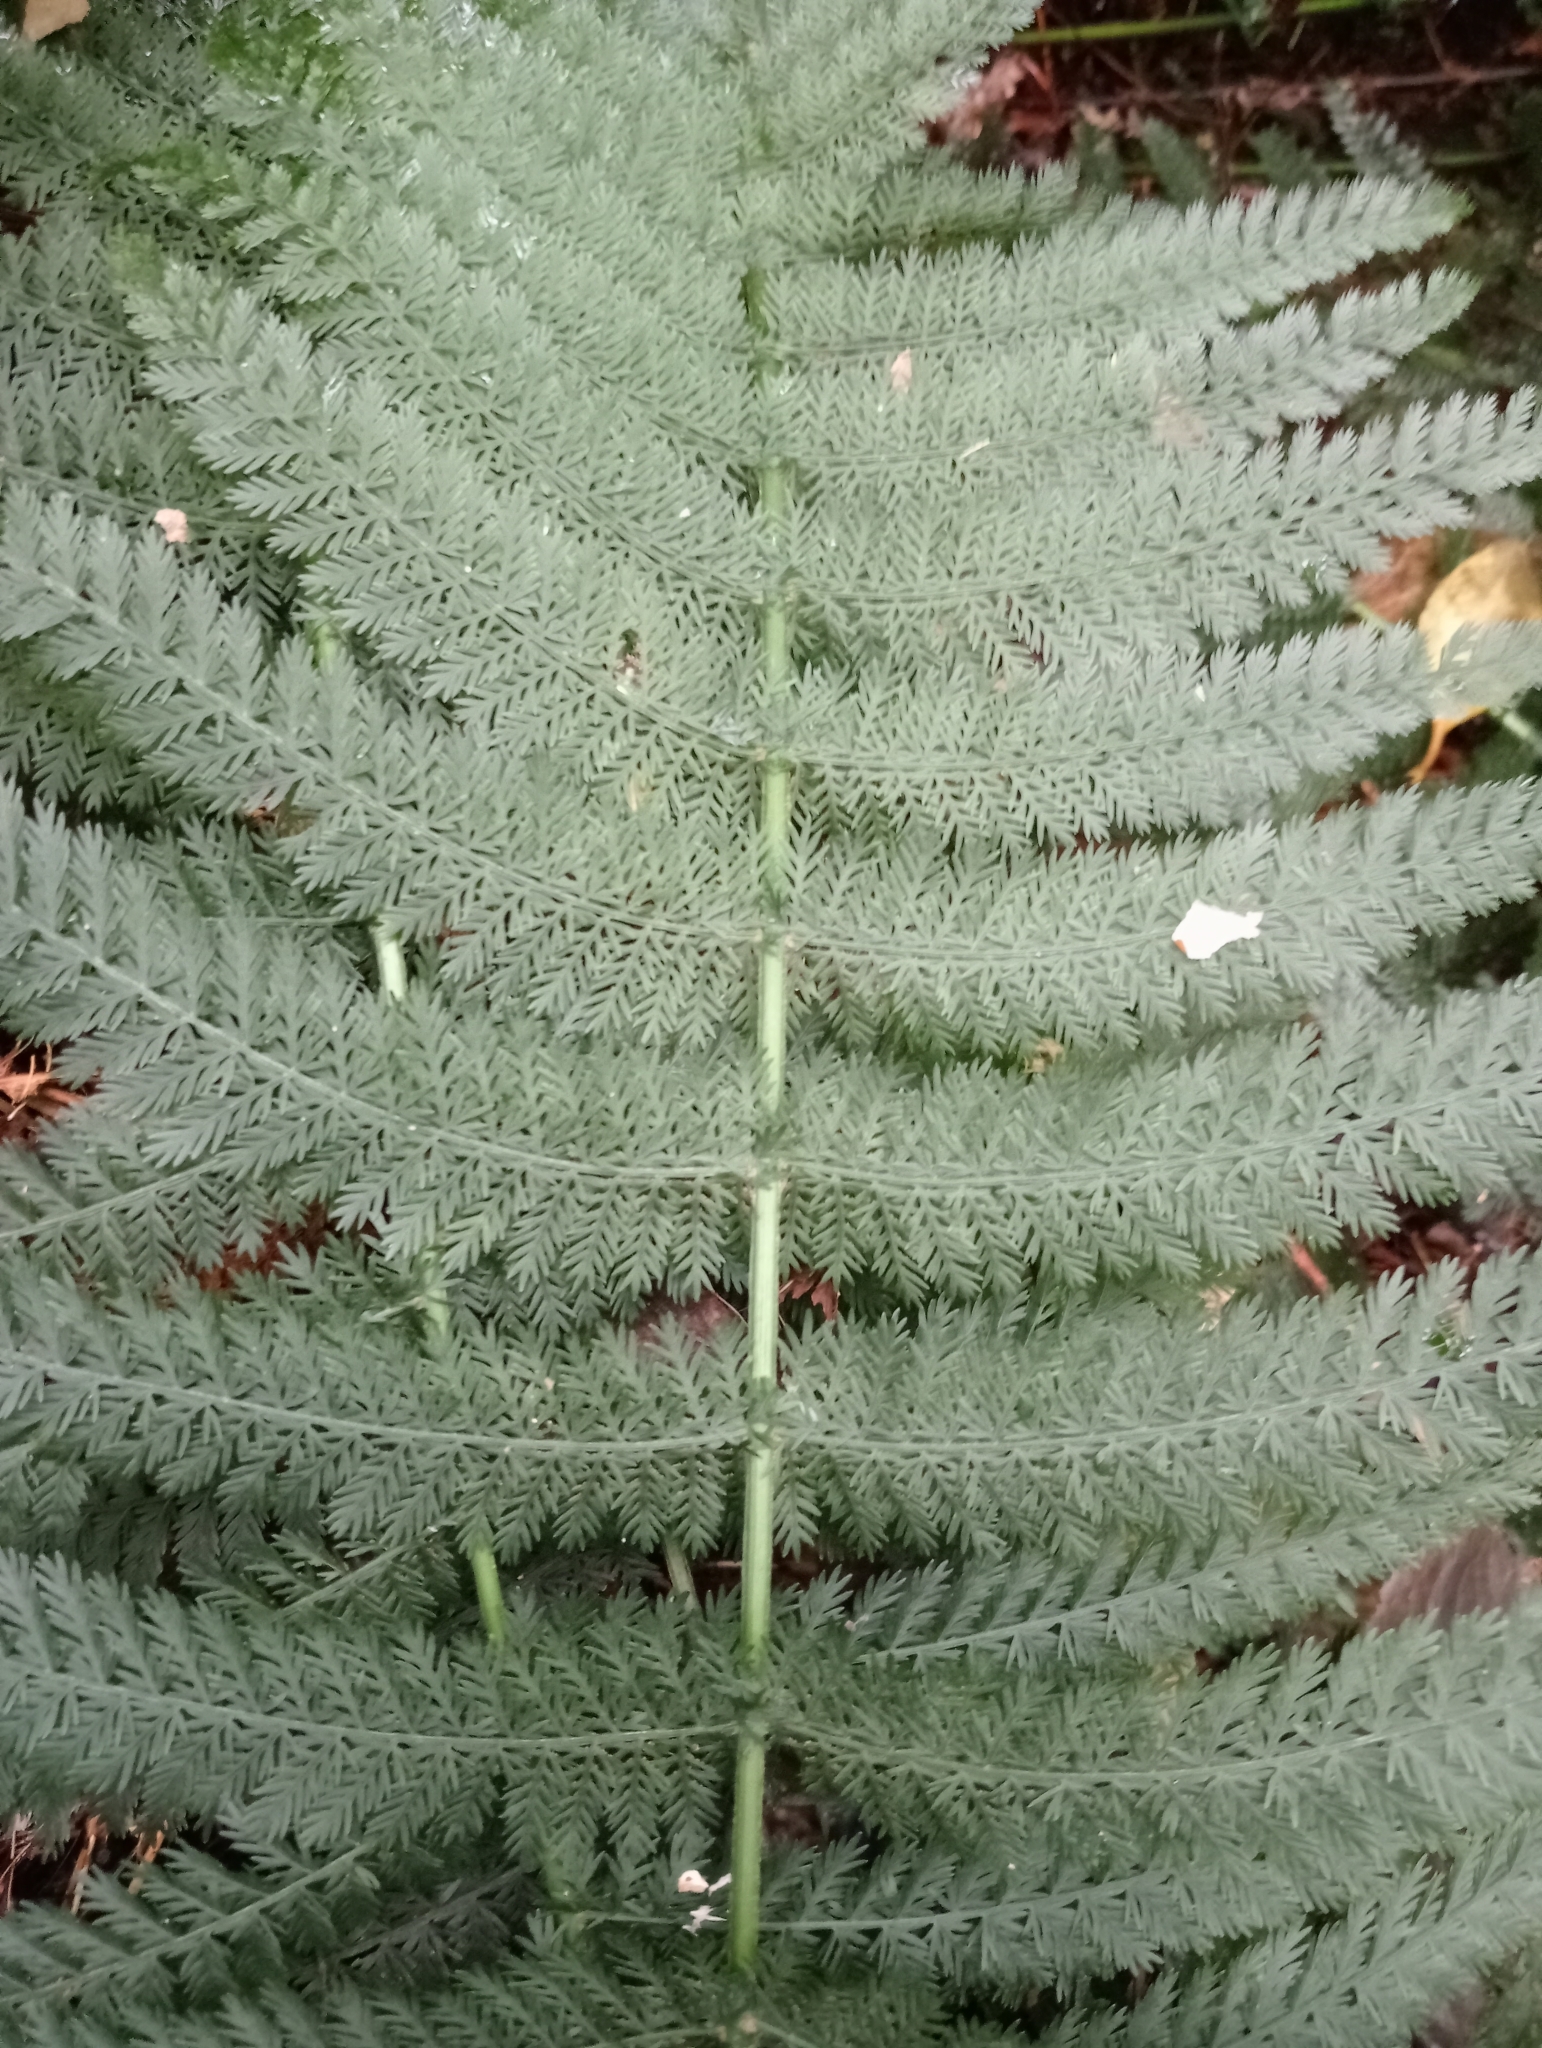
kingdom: Plantae
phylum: Tracheophyta
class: Polypodiopsida
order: Osmundales
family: Osmundaceae
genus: Leptopteris
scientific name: Leptopteris hymenophylloides
